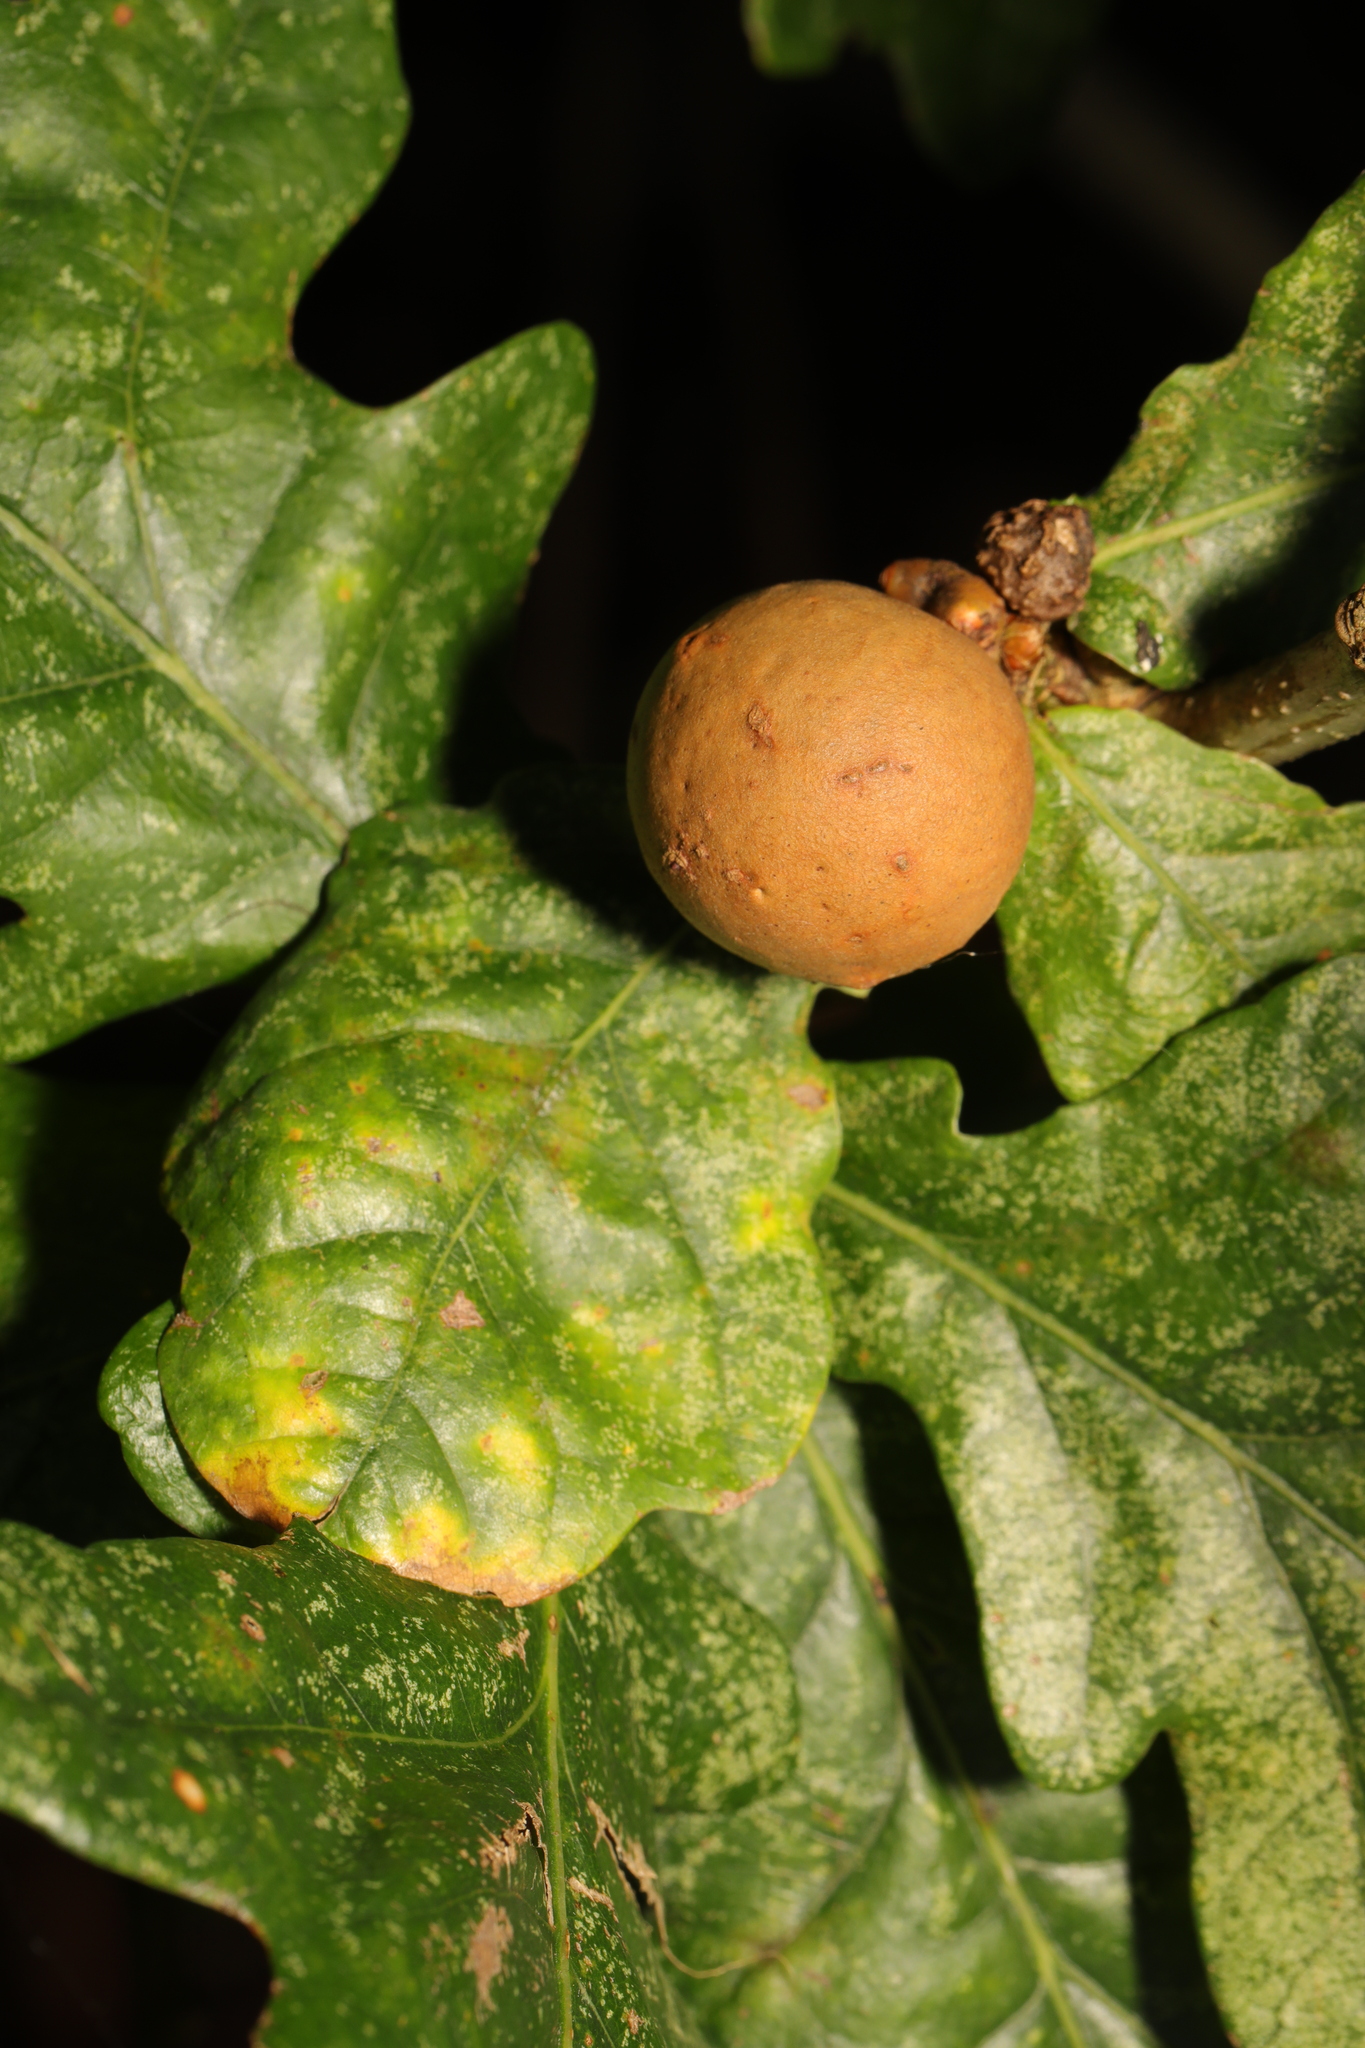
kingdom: Animalia
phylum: Arthropoda
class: Insecta
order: Hymenoptera
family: Cynipidae
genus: Andricus
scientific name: Andricus kollari
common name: Marble gall
